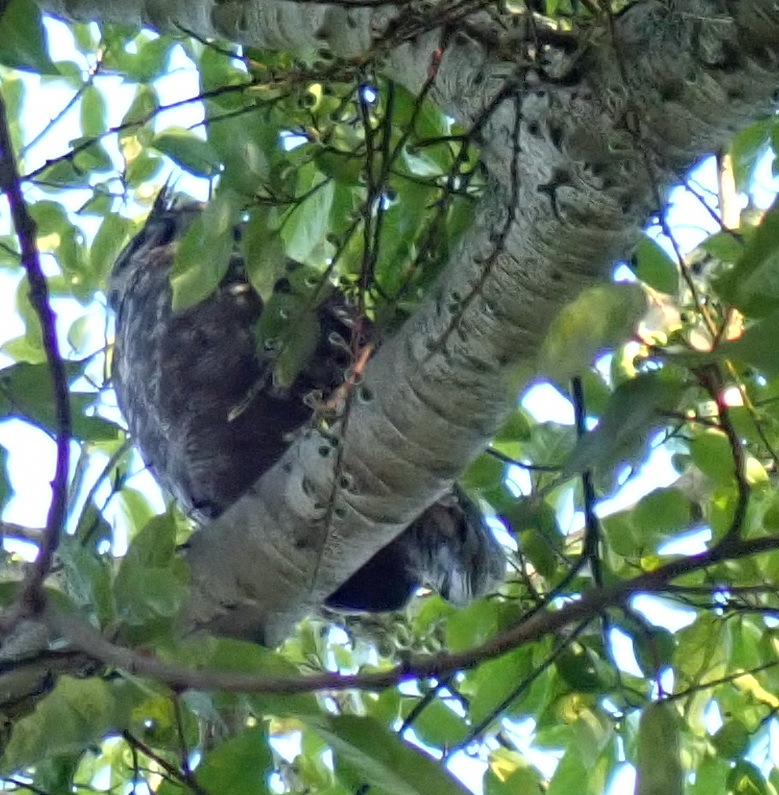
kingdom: Animalia
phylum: Chordata
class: Aves
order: Strigiformes
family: Strigidae
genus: Bubo
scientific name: Bubo africanus
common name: Spotted eagle-owl
